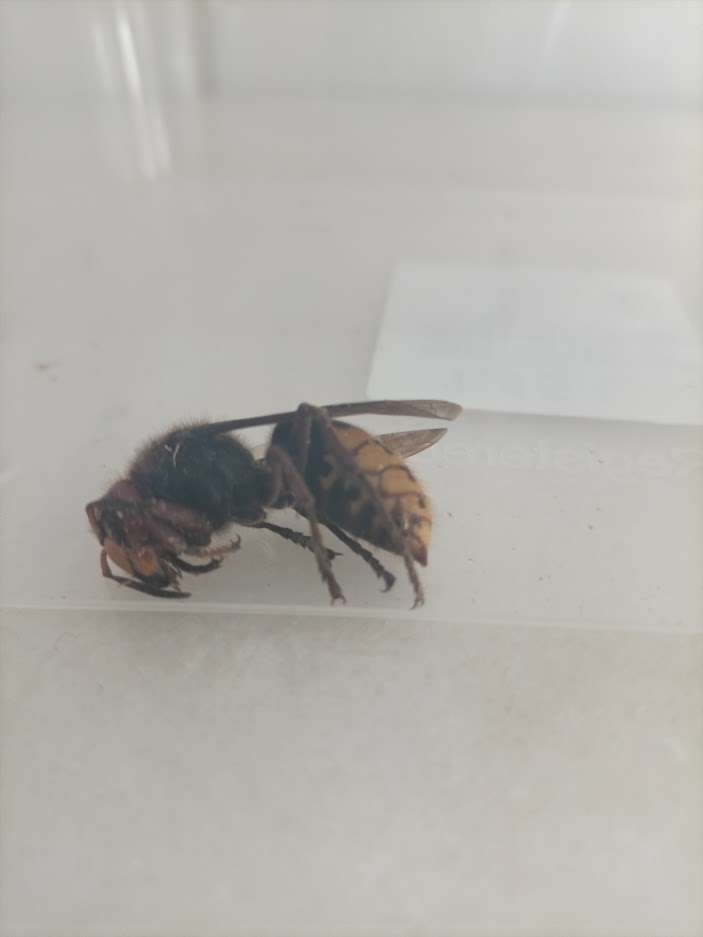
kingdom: Animalia
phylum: Arthropoda
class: Insecta
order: Hymenoptera
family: Vespidae
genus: Vespa
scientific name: Vespa crabro
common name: Hornet
